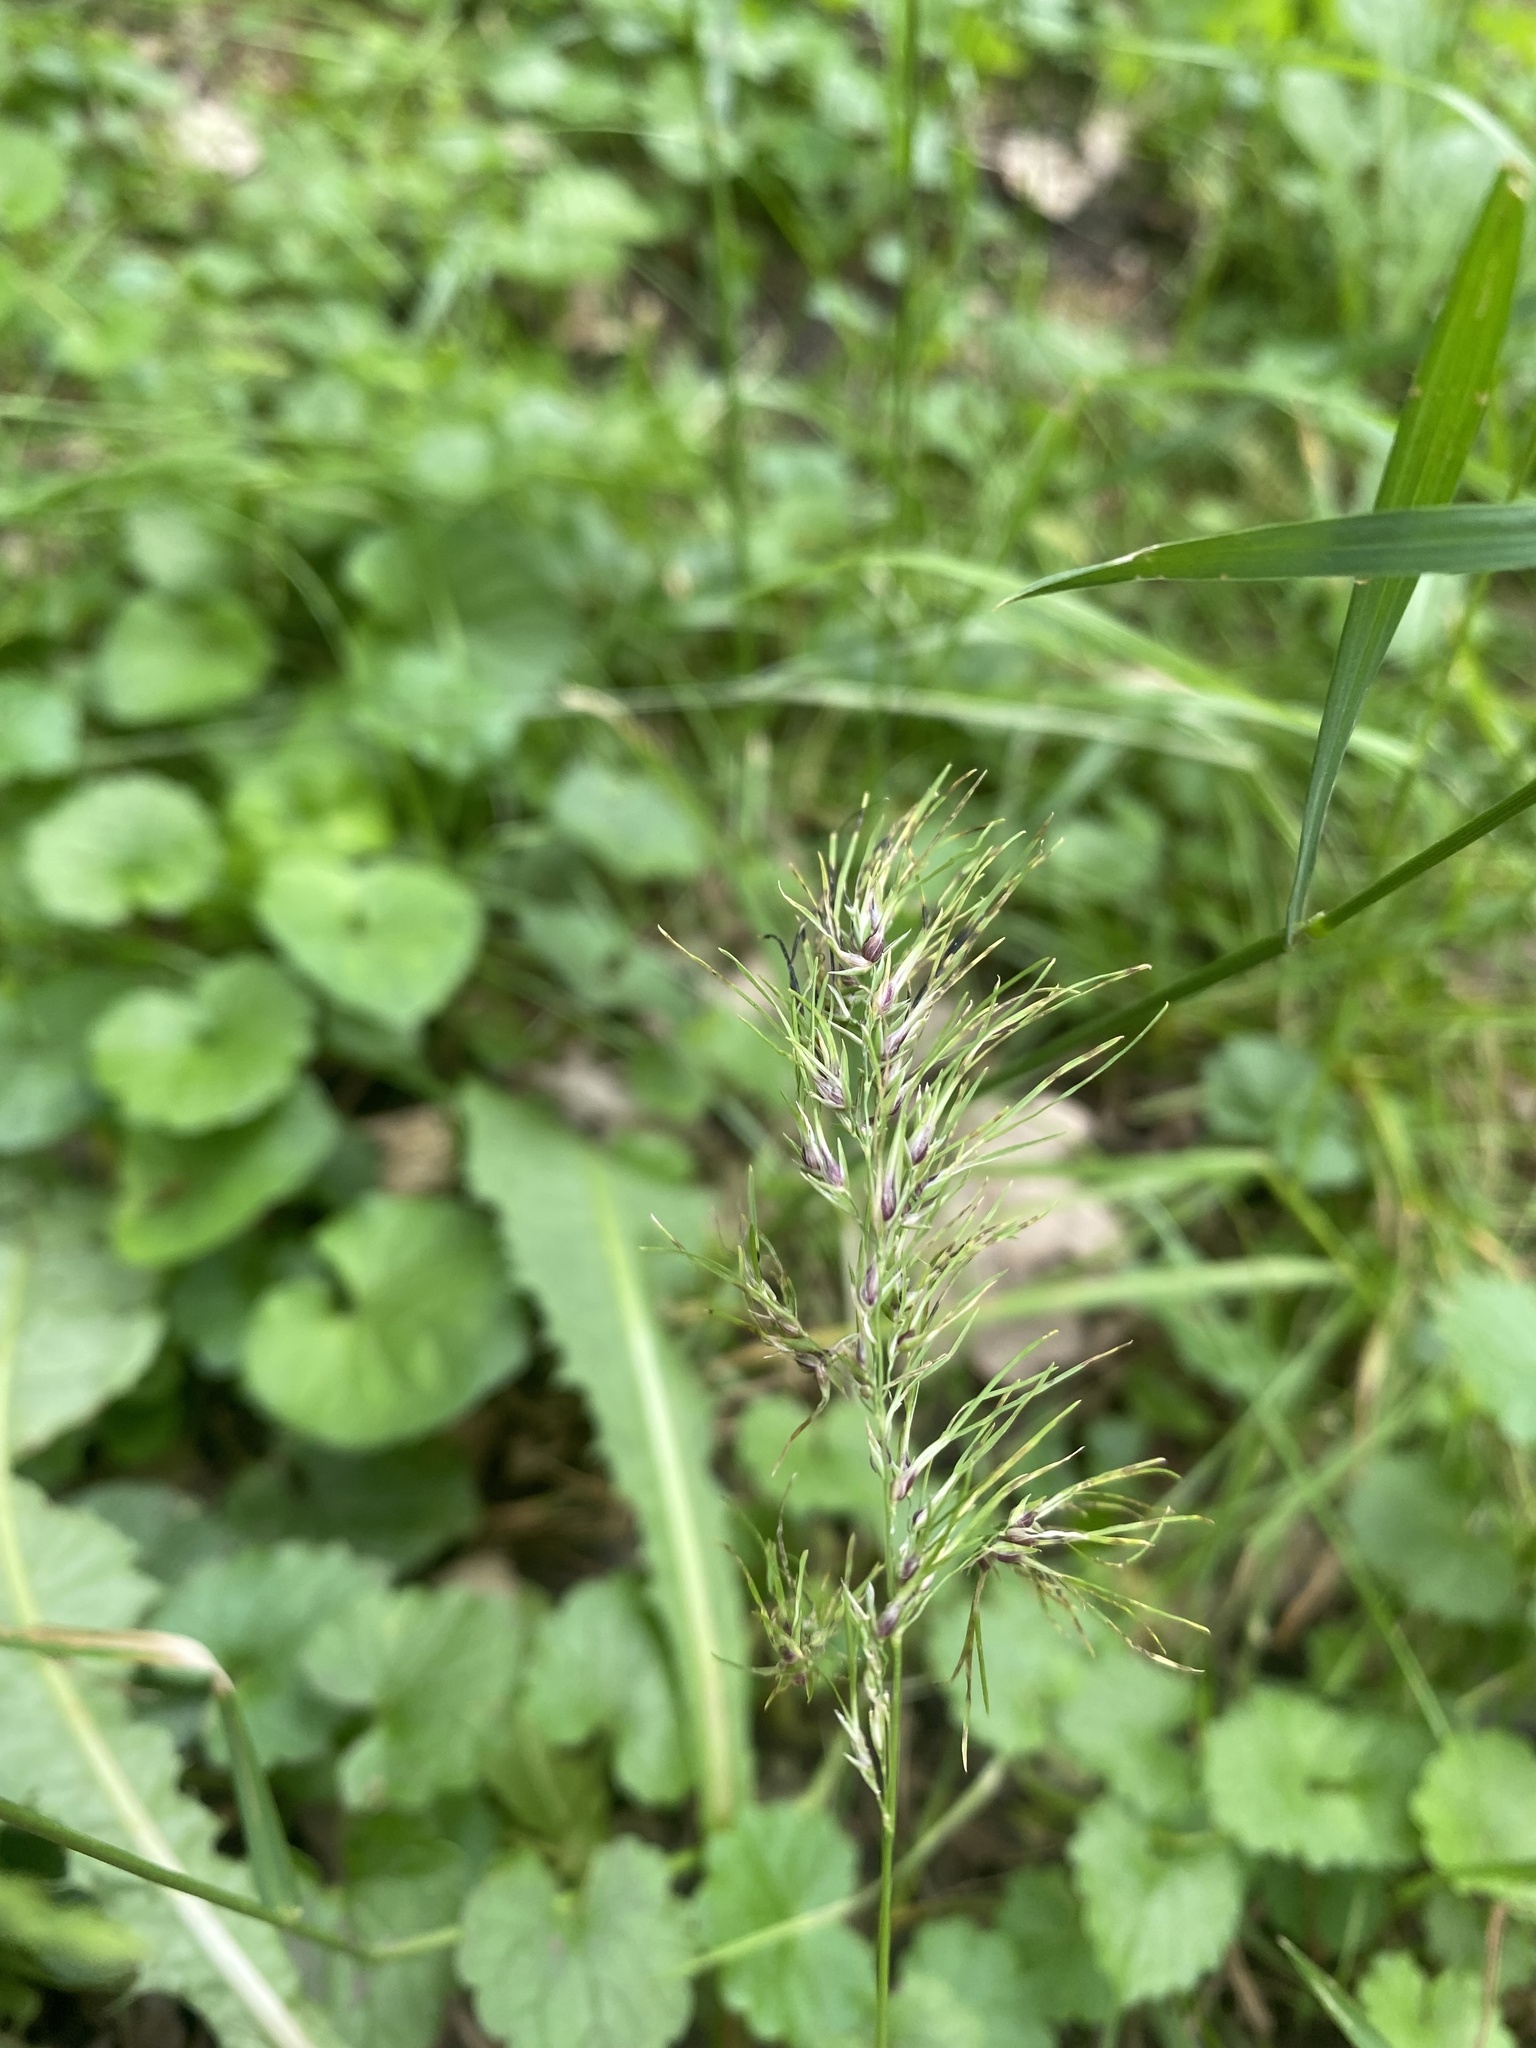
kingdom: Plantae
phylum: Tracheophyta
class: Liliopsida
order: Poales
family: Poaceae
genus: Poa
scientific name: Poa bulbosa
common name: Bulbous bluegrass
